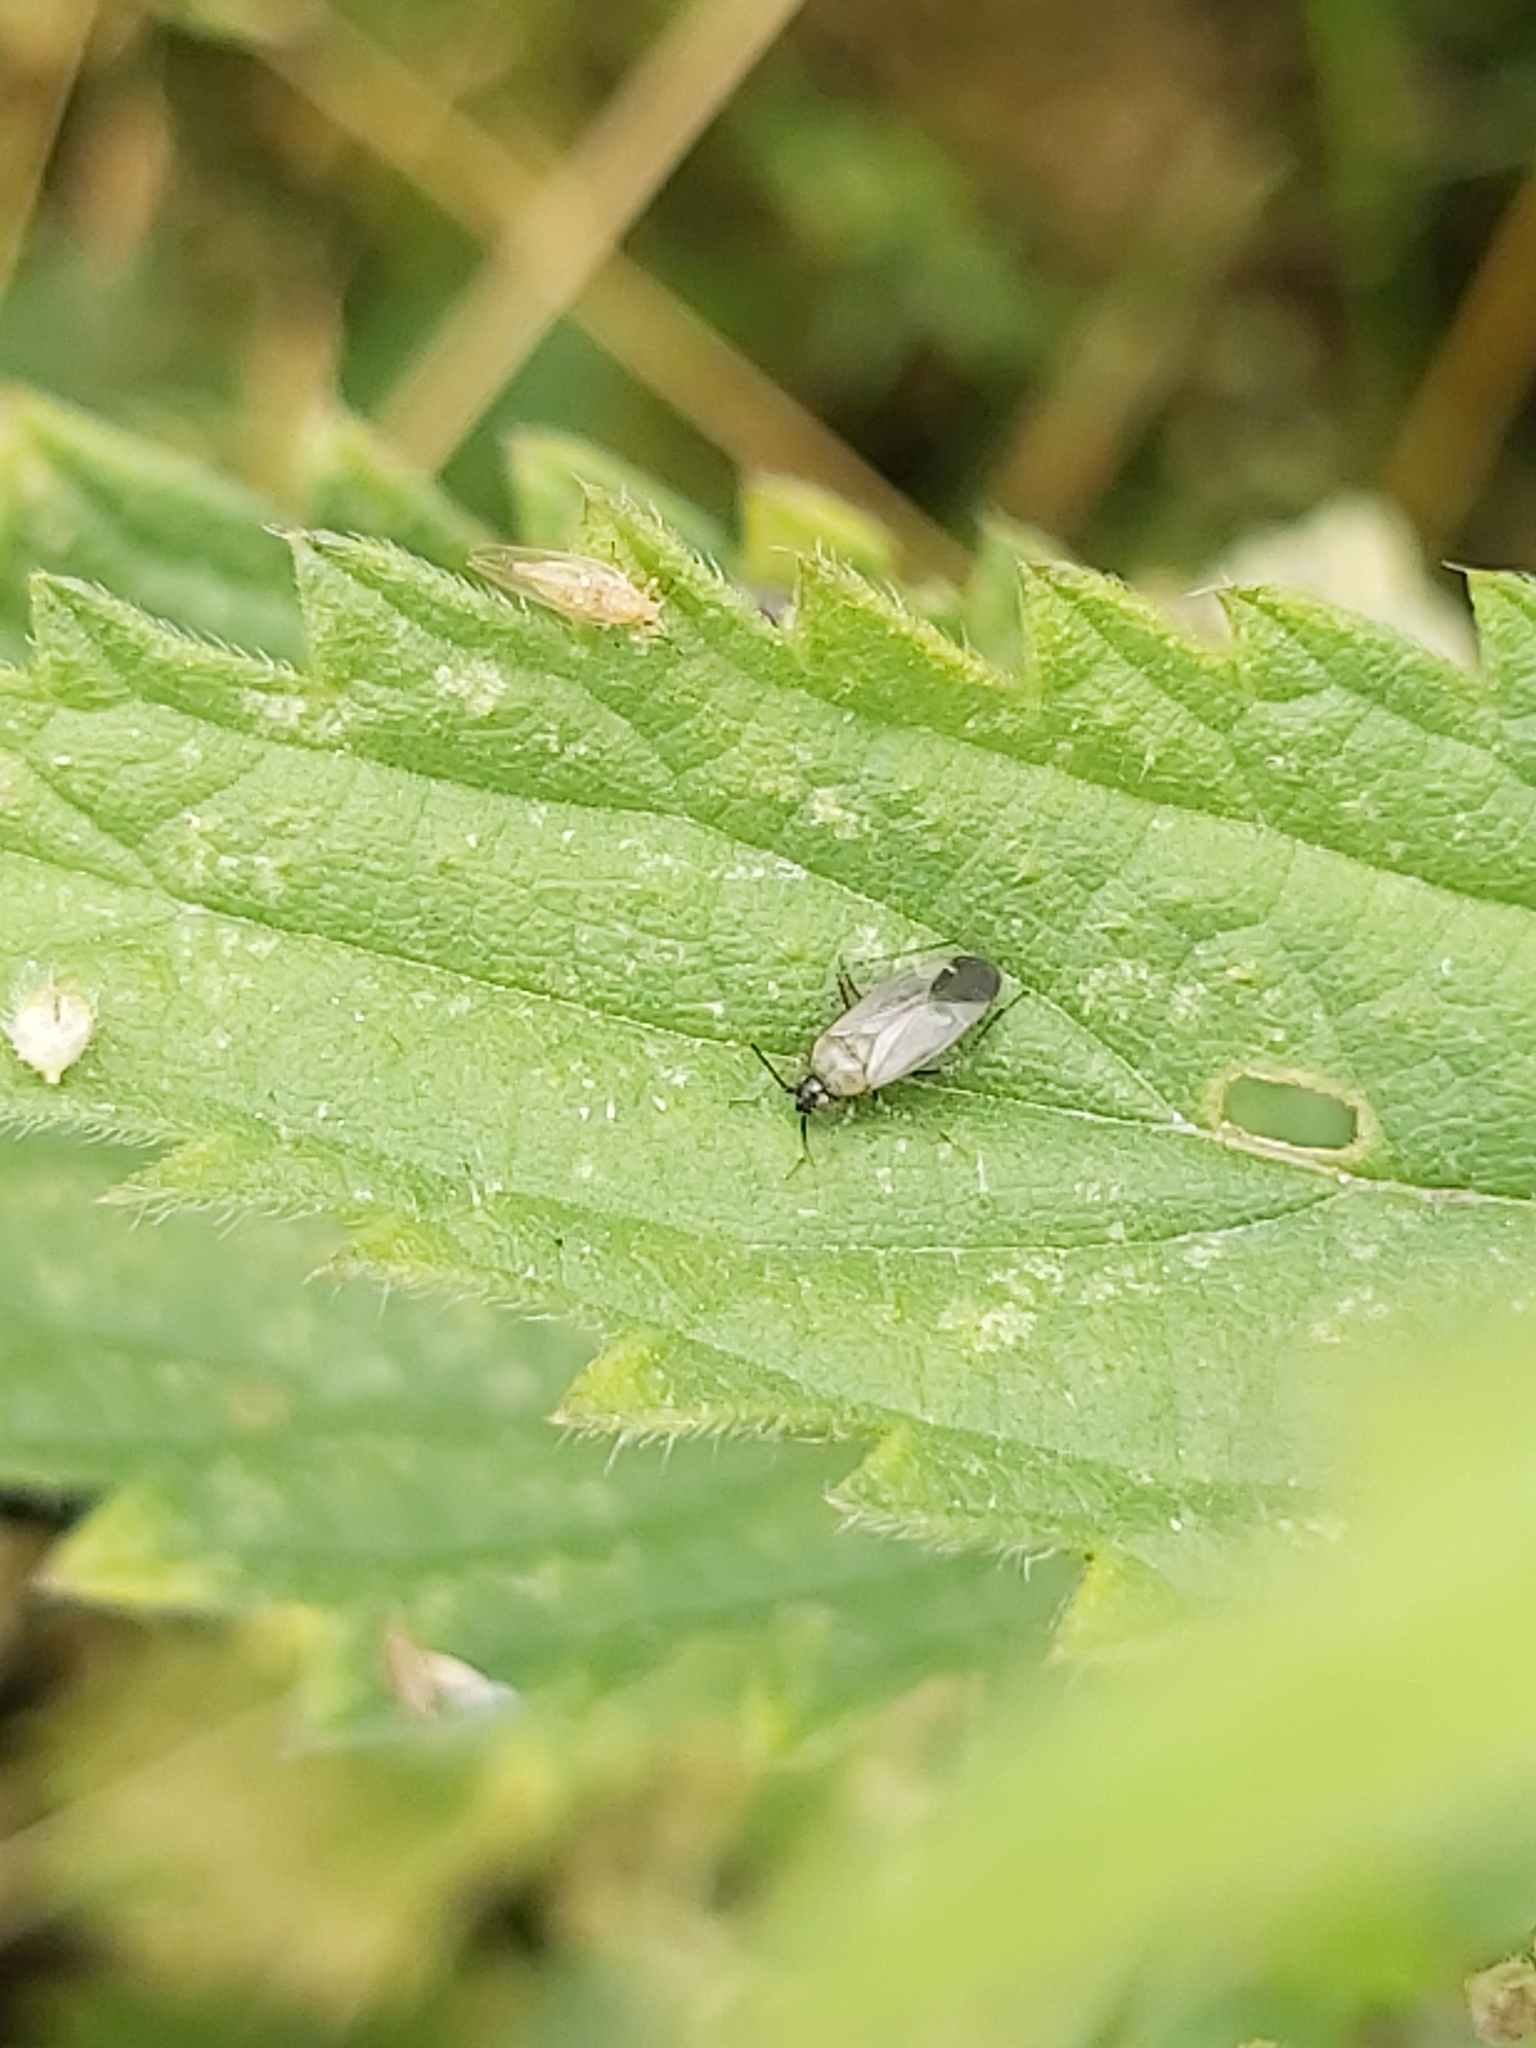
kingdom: Animalia
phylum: Arthropoda
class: Insecta
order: Hemiptera
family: Miridae
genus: Plagiognathus
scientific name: Plagiognathus arbustorum
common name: Plant bug
